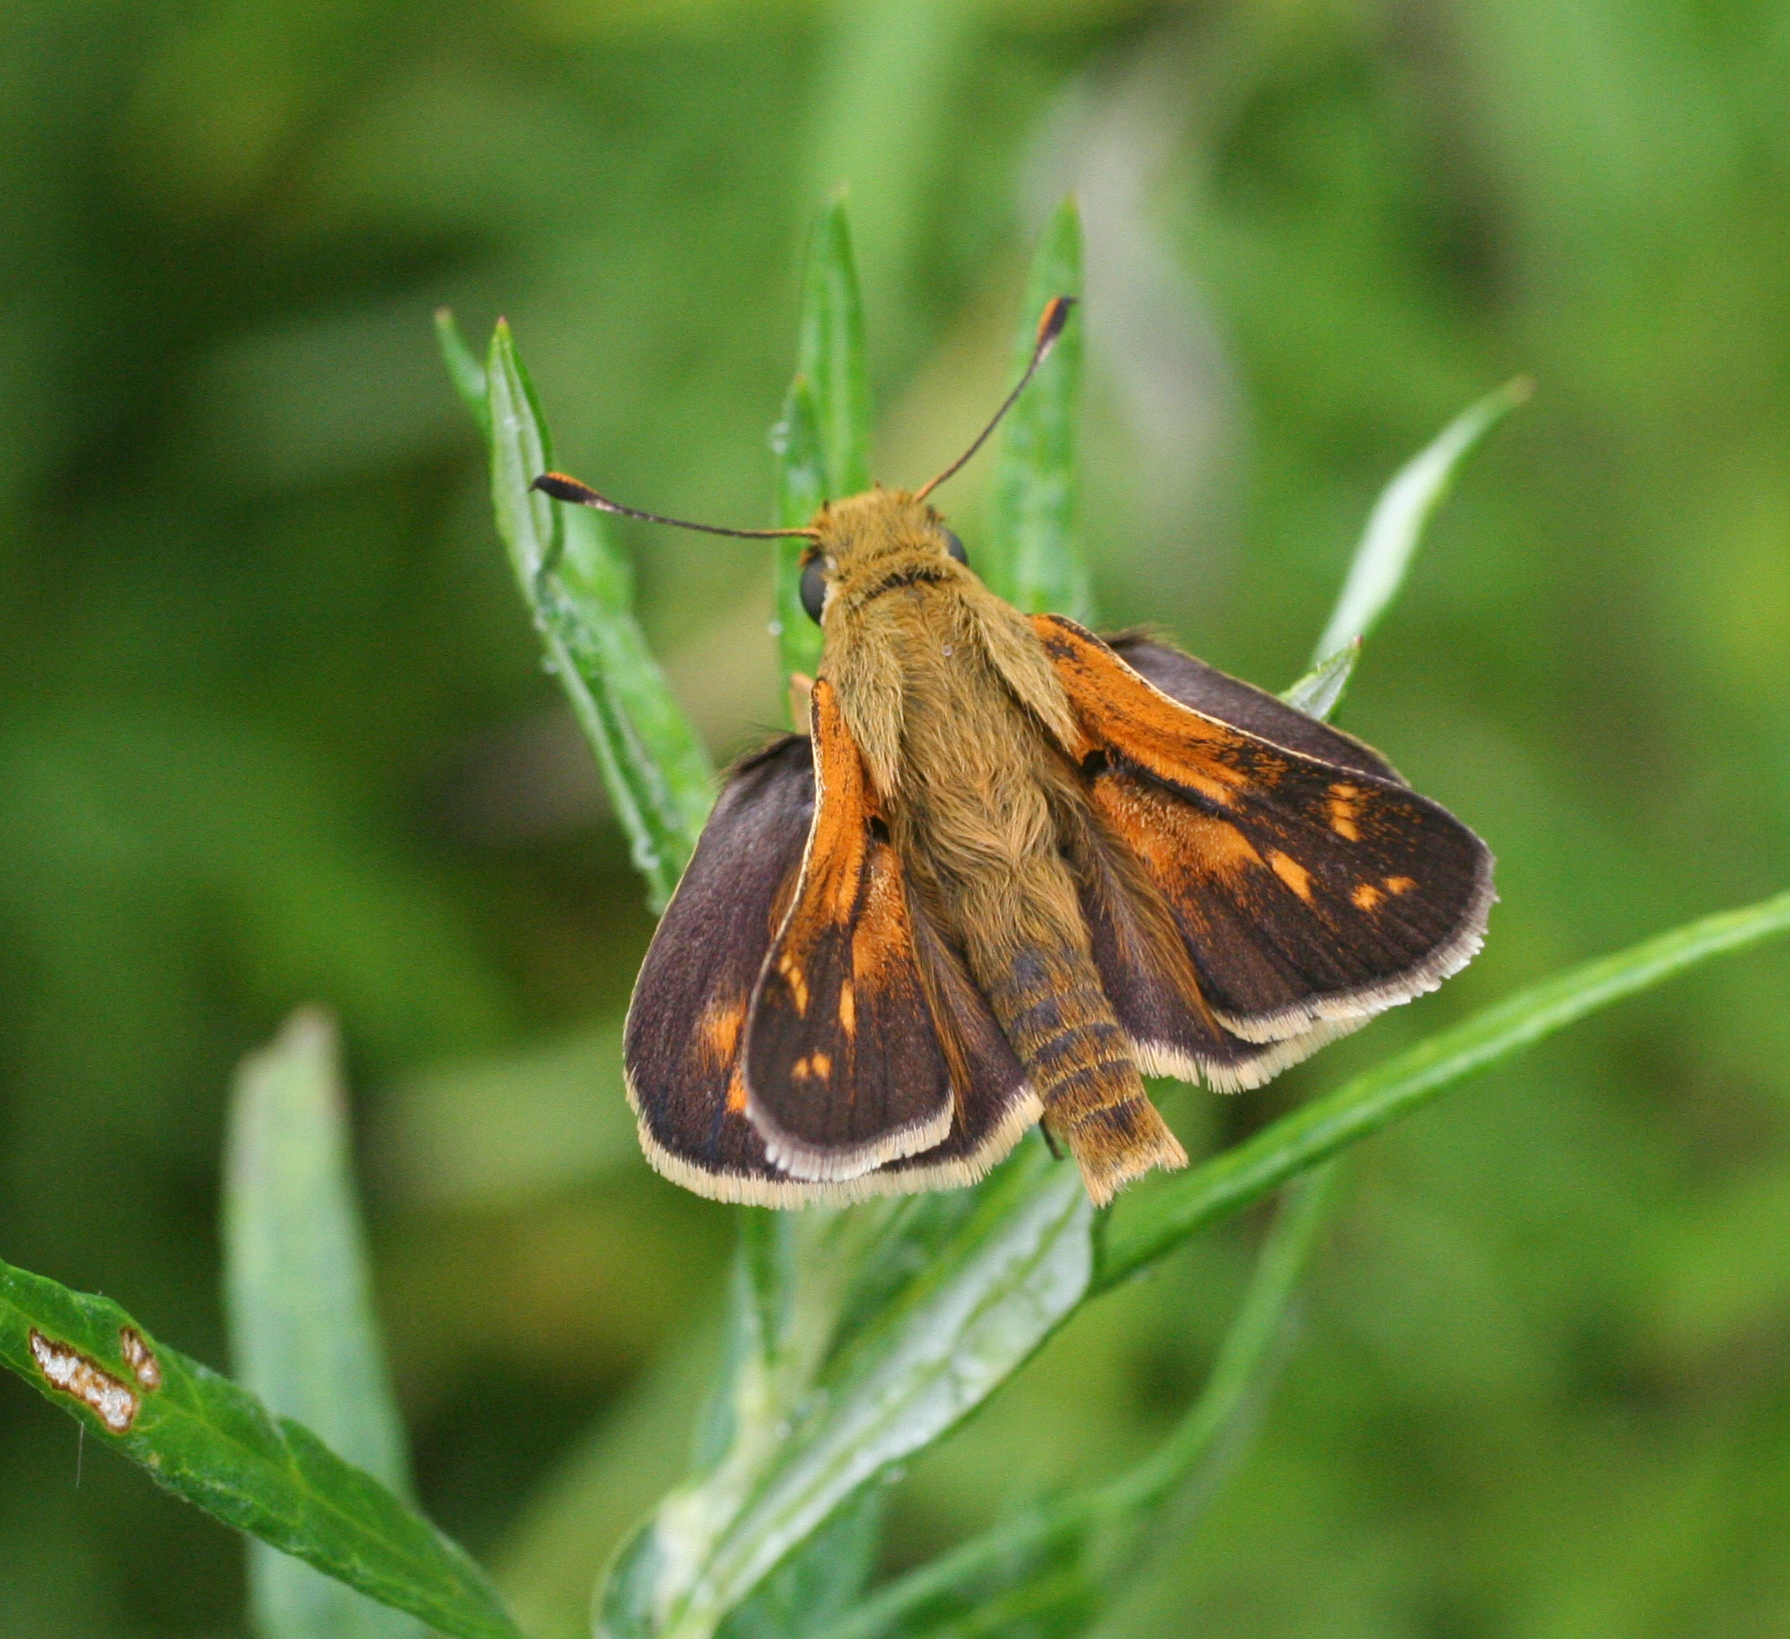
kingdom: Animalia
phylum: Arthropoda
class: Insecta
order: Lepidoptera
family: Hesperiidae
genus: Hesperia
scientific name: Hesperia florinda
